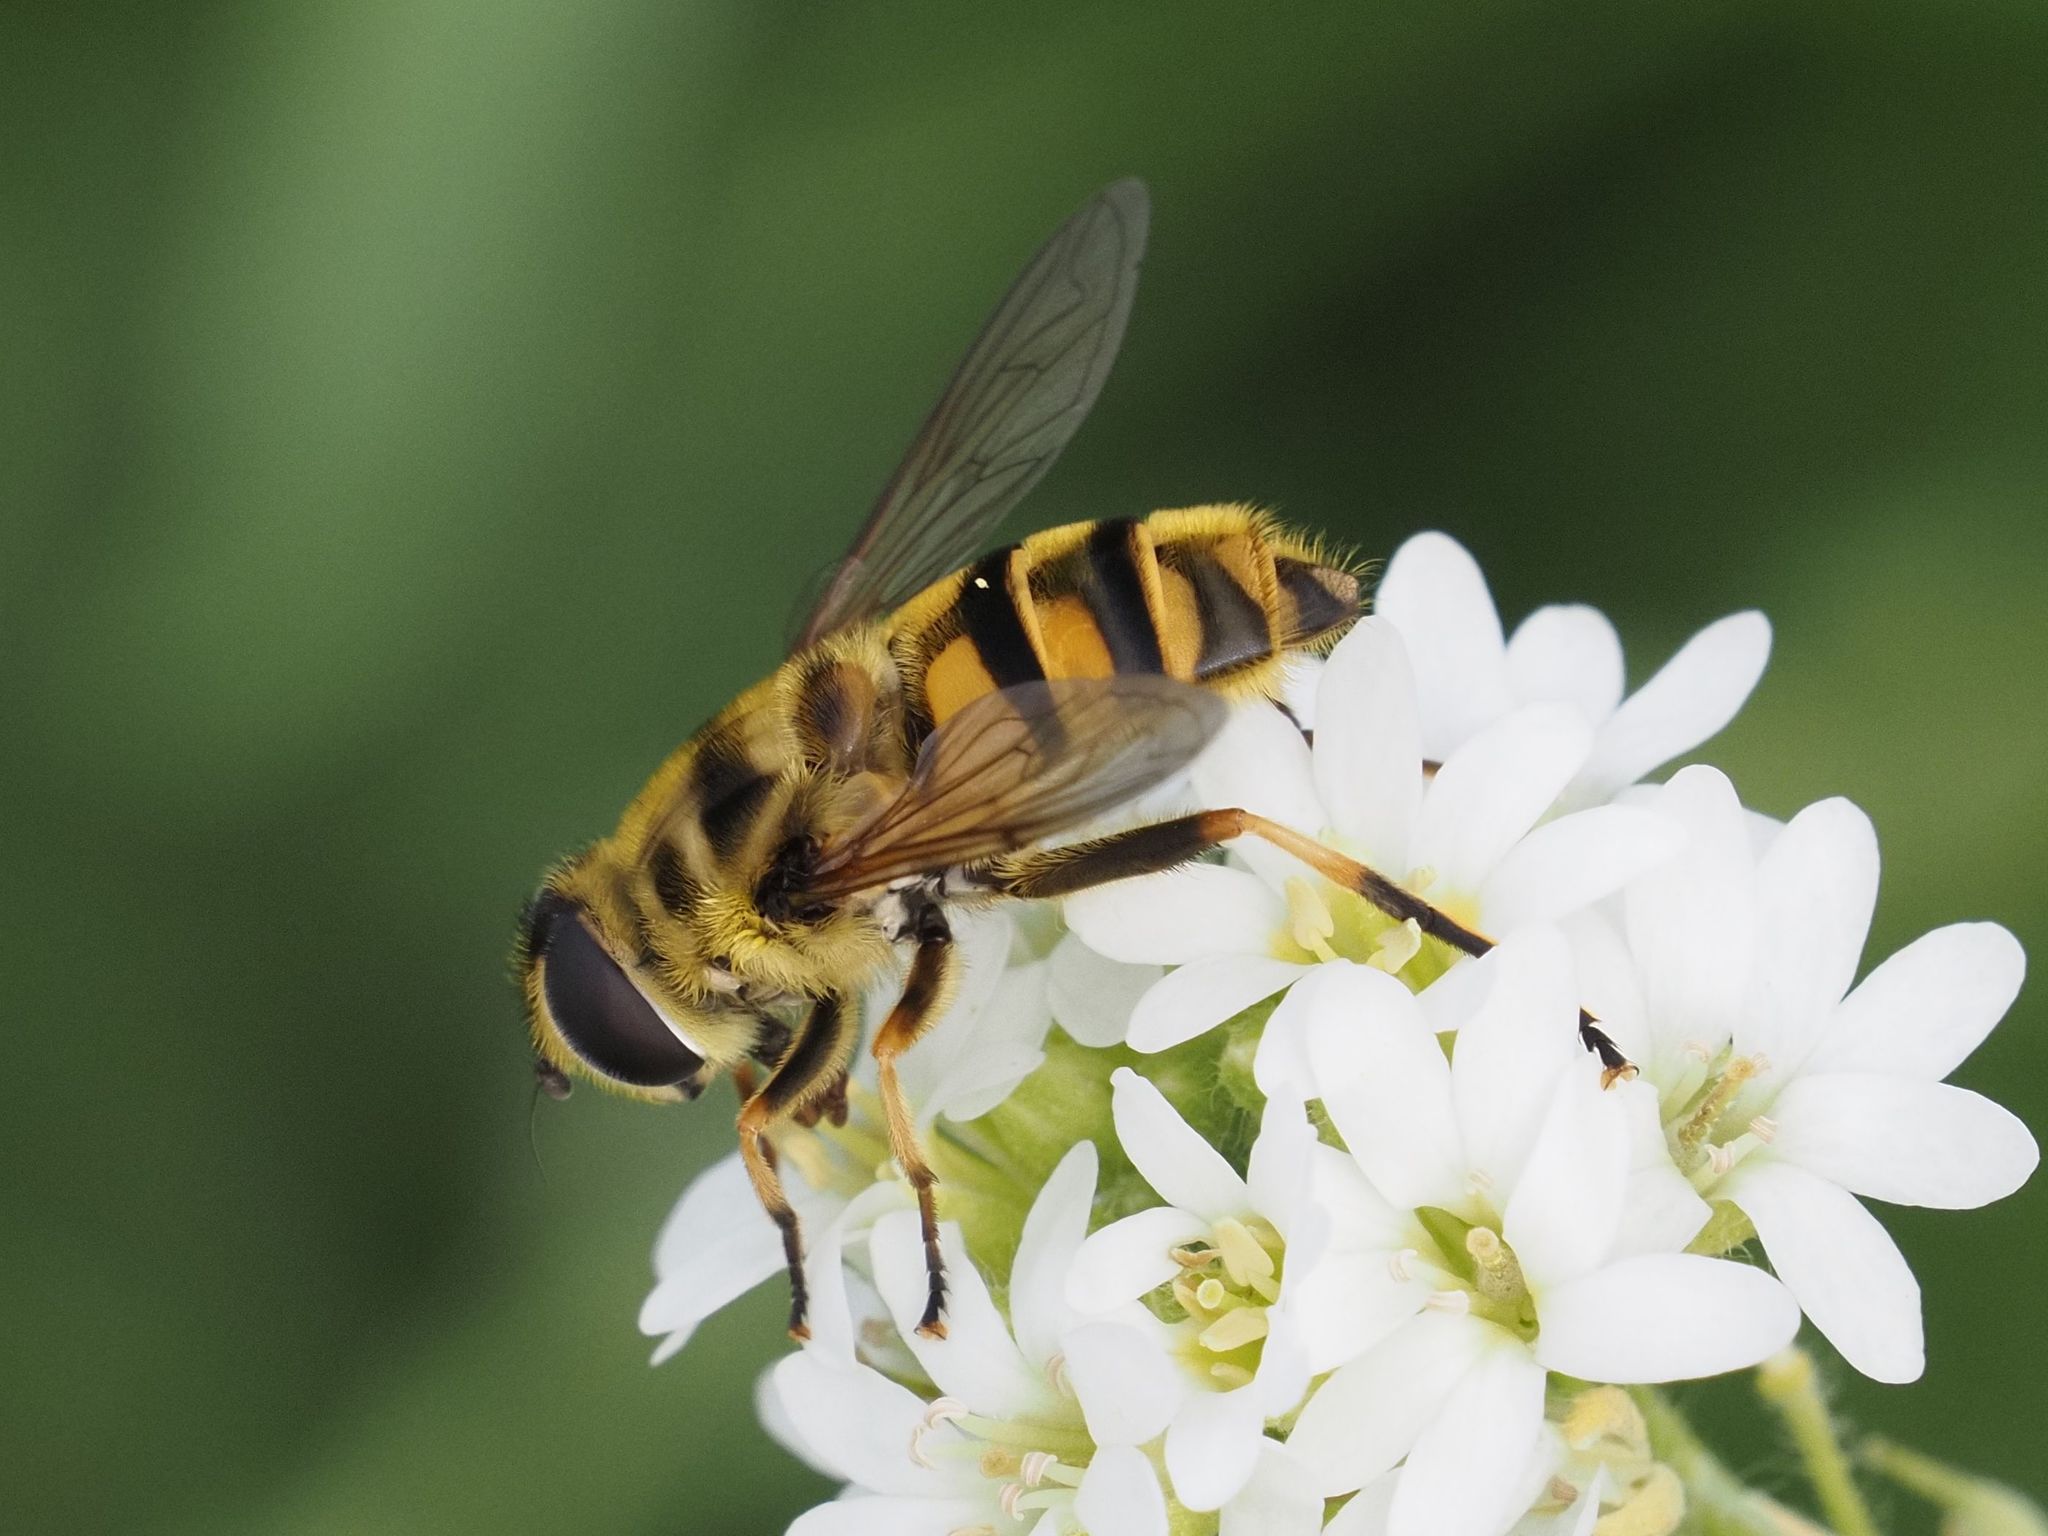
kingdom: Animalia
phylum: Arthropoda
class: Insecta
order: Diptera
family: Syrphidae
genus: Myathropa
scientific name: Myathropa florea
